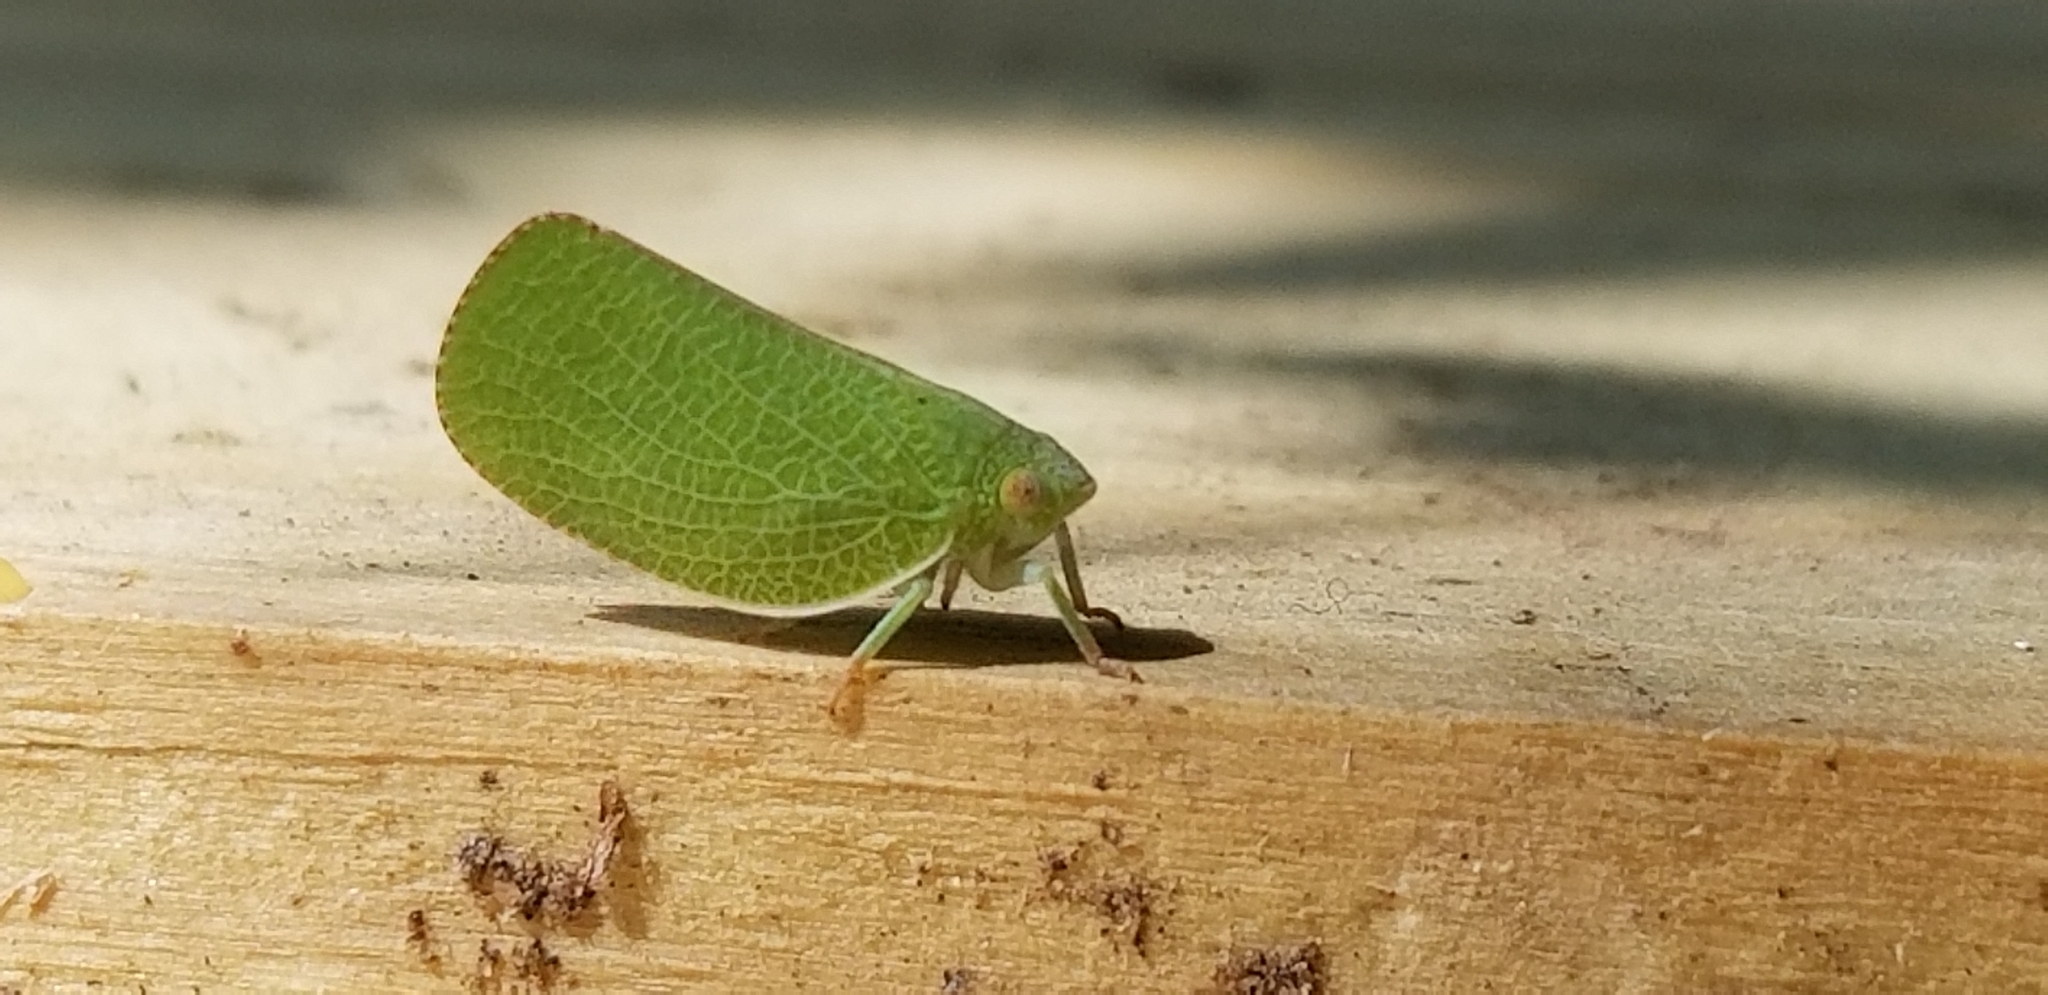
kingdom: Animalia
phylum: Arthropoda
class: Insecta
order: Hemiptera
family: Acanaloniidae
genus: Acanalonia
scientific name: Acanalonia conica
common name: Green cone-headed planthopper
